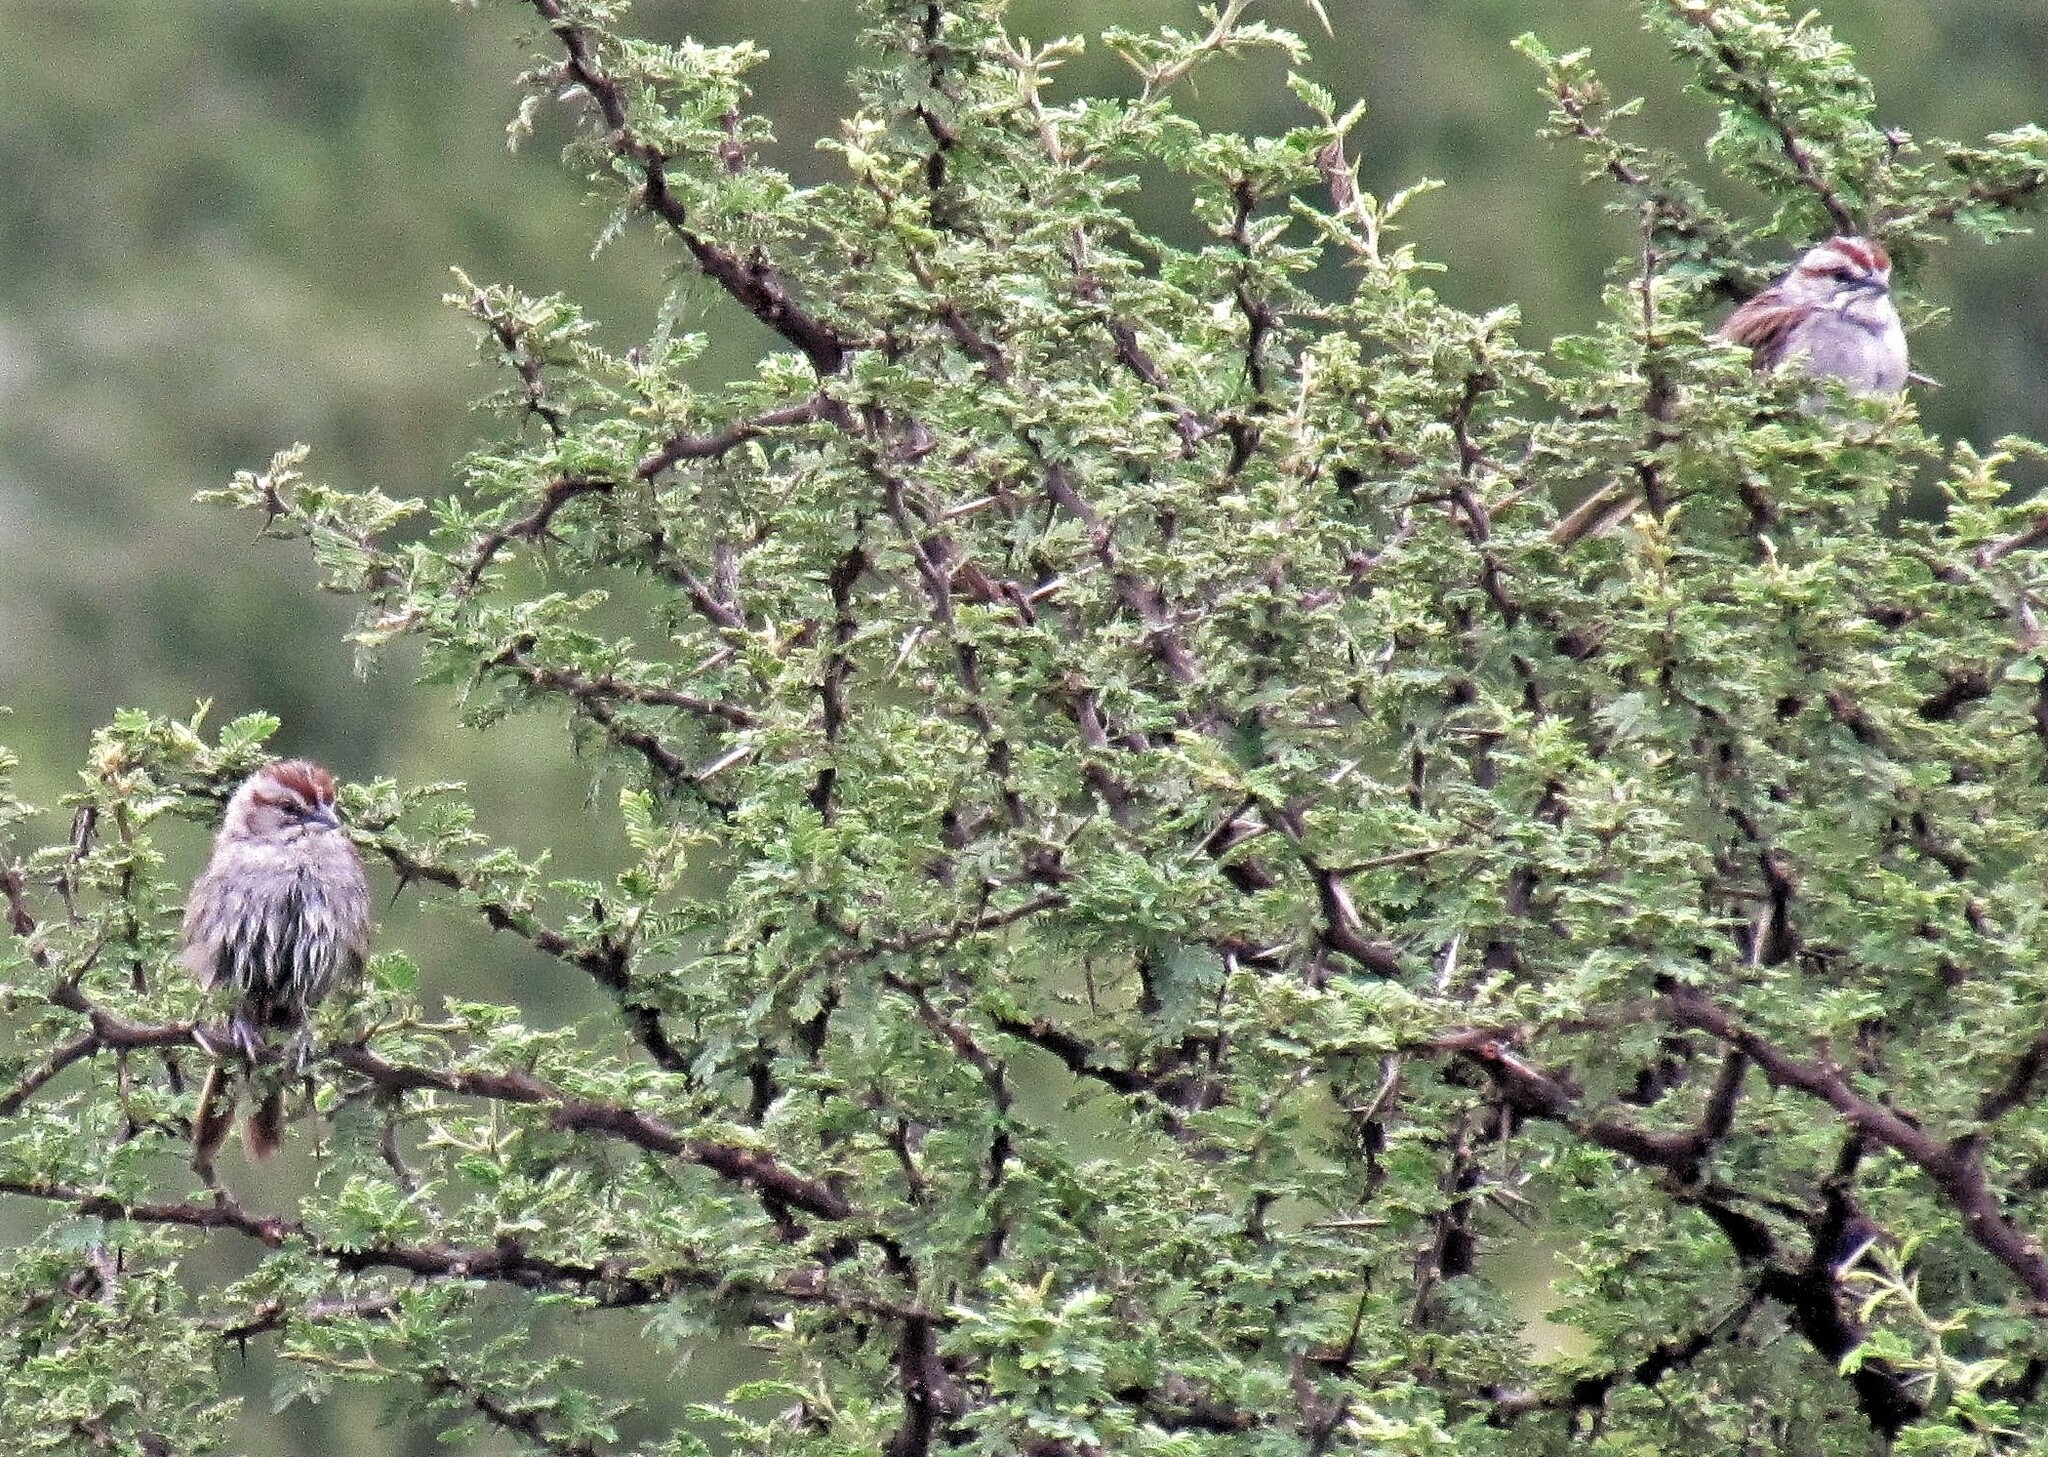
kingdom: Animalia
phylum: Chordata
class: Aves
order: Passeriformes
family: Passerellidae
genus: Rhynchospiza
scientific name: Rhynchospiza strigiceps
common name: Stripe-capped sparrow
